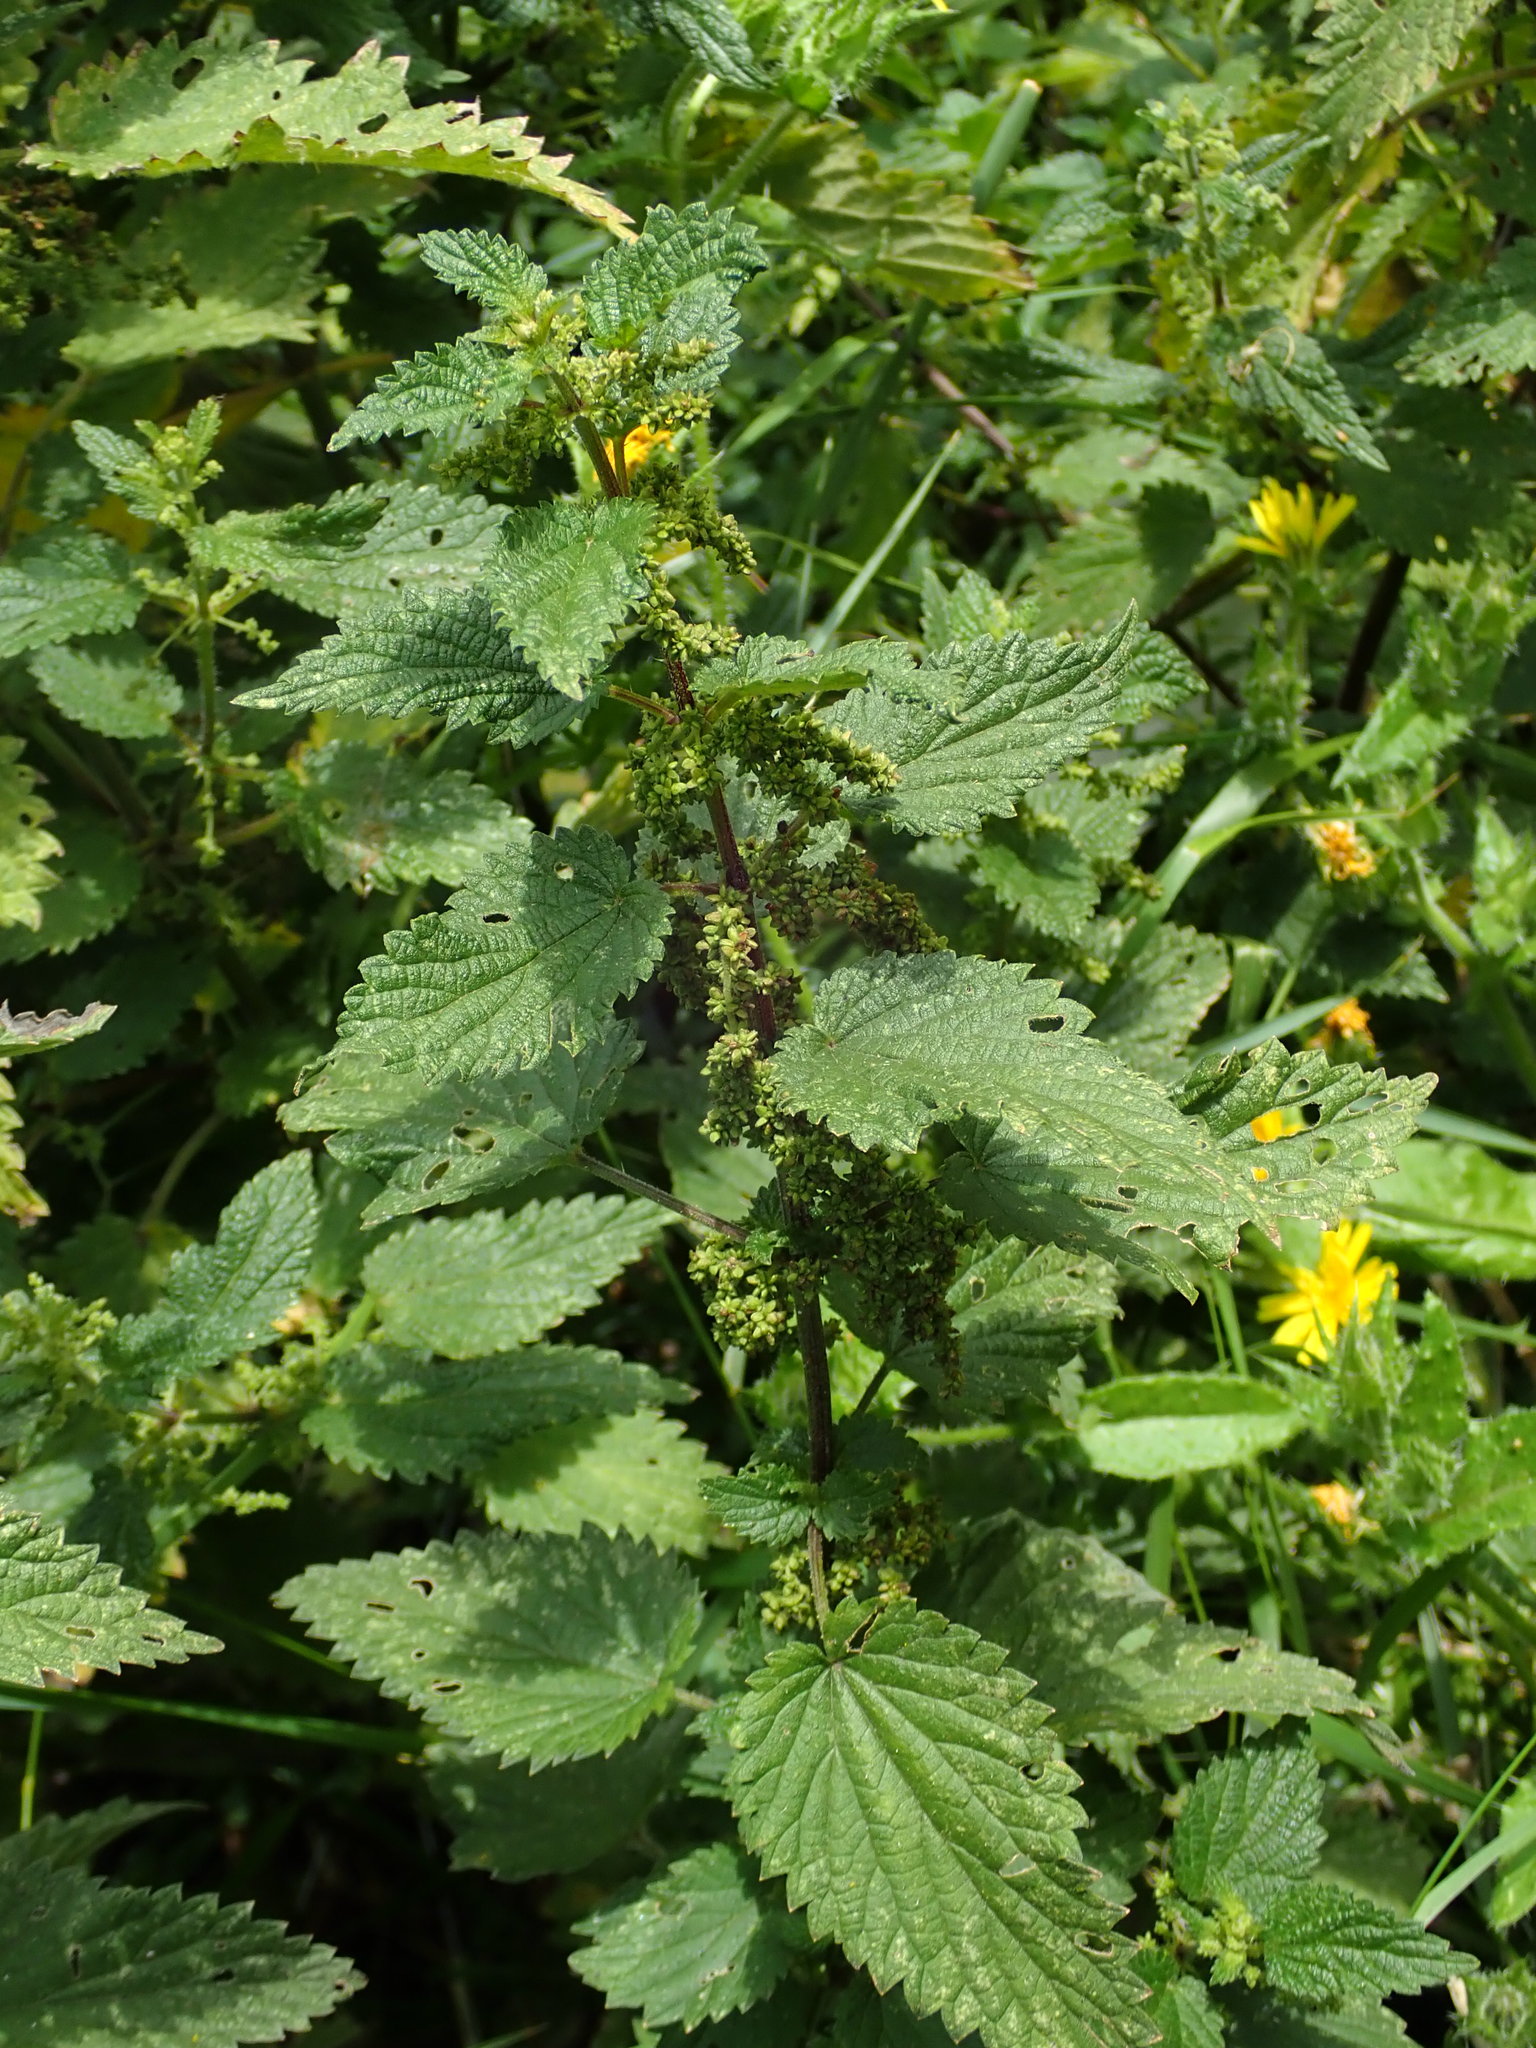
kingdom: Plantae
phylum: Tracheophyta
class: Magnoliopsida
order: Rosales
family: Urticaceae
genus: Urtica
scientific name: Urtica dioica
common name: Common nettle
